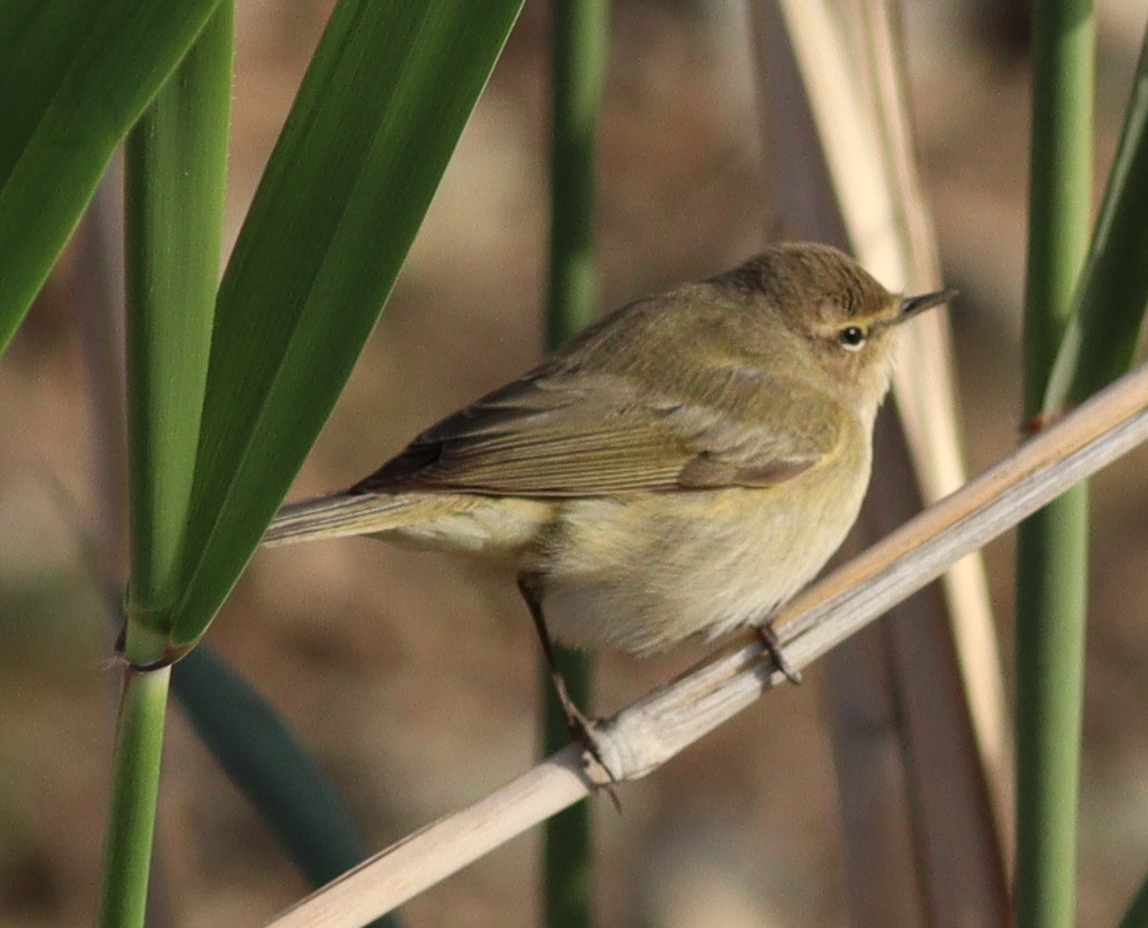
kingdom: Animalia
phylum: Chordata
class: Aves
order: Passeriformes
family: Phylloscopidae
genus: Phylloscopus
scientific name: Phylloscopus collybita
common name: Common chiffchaff
